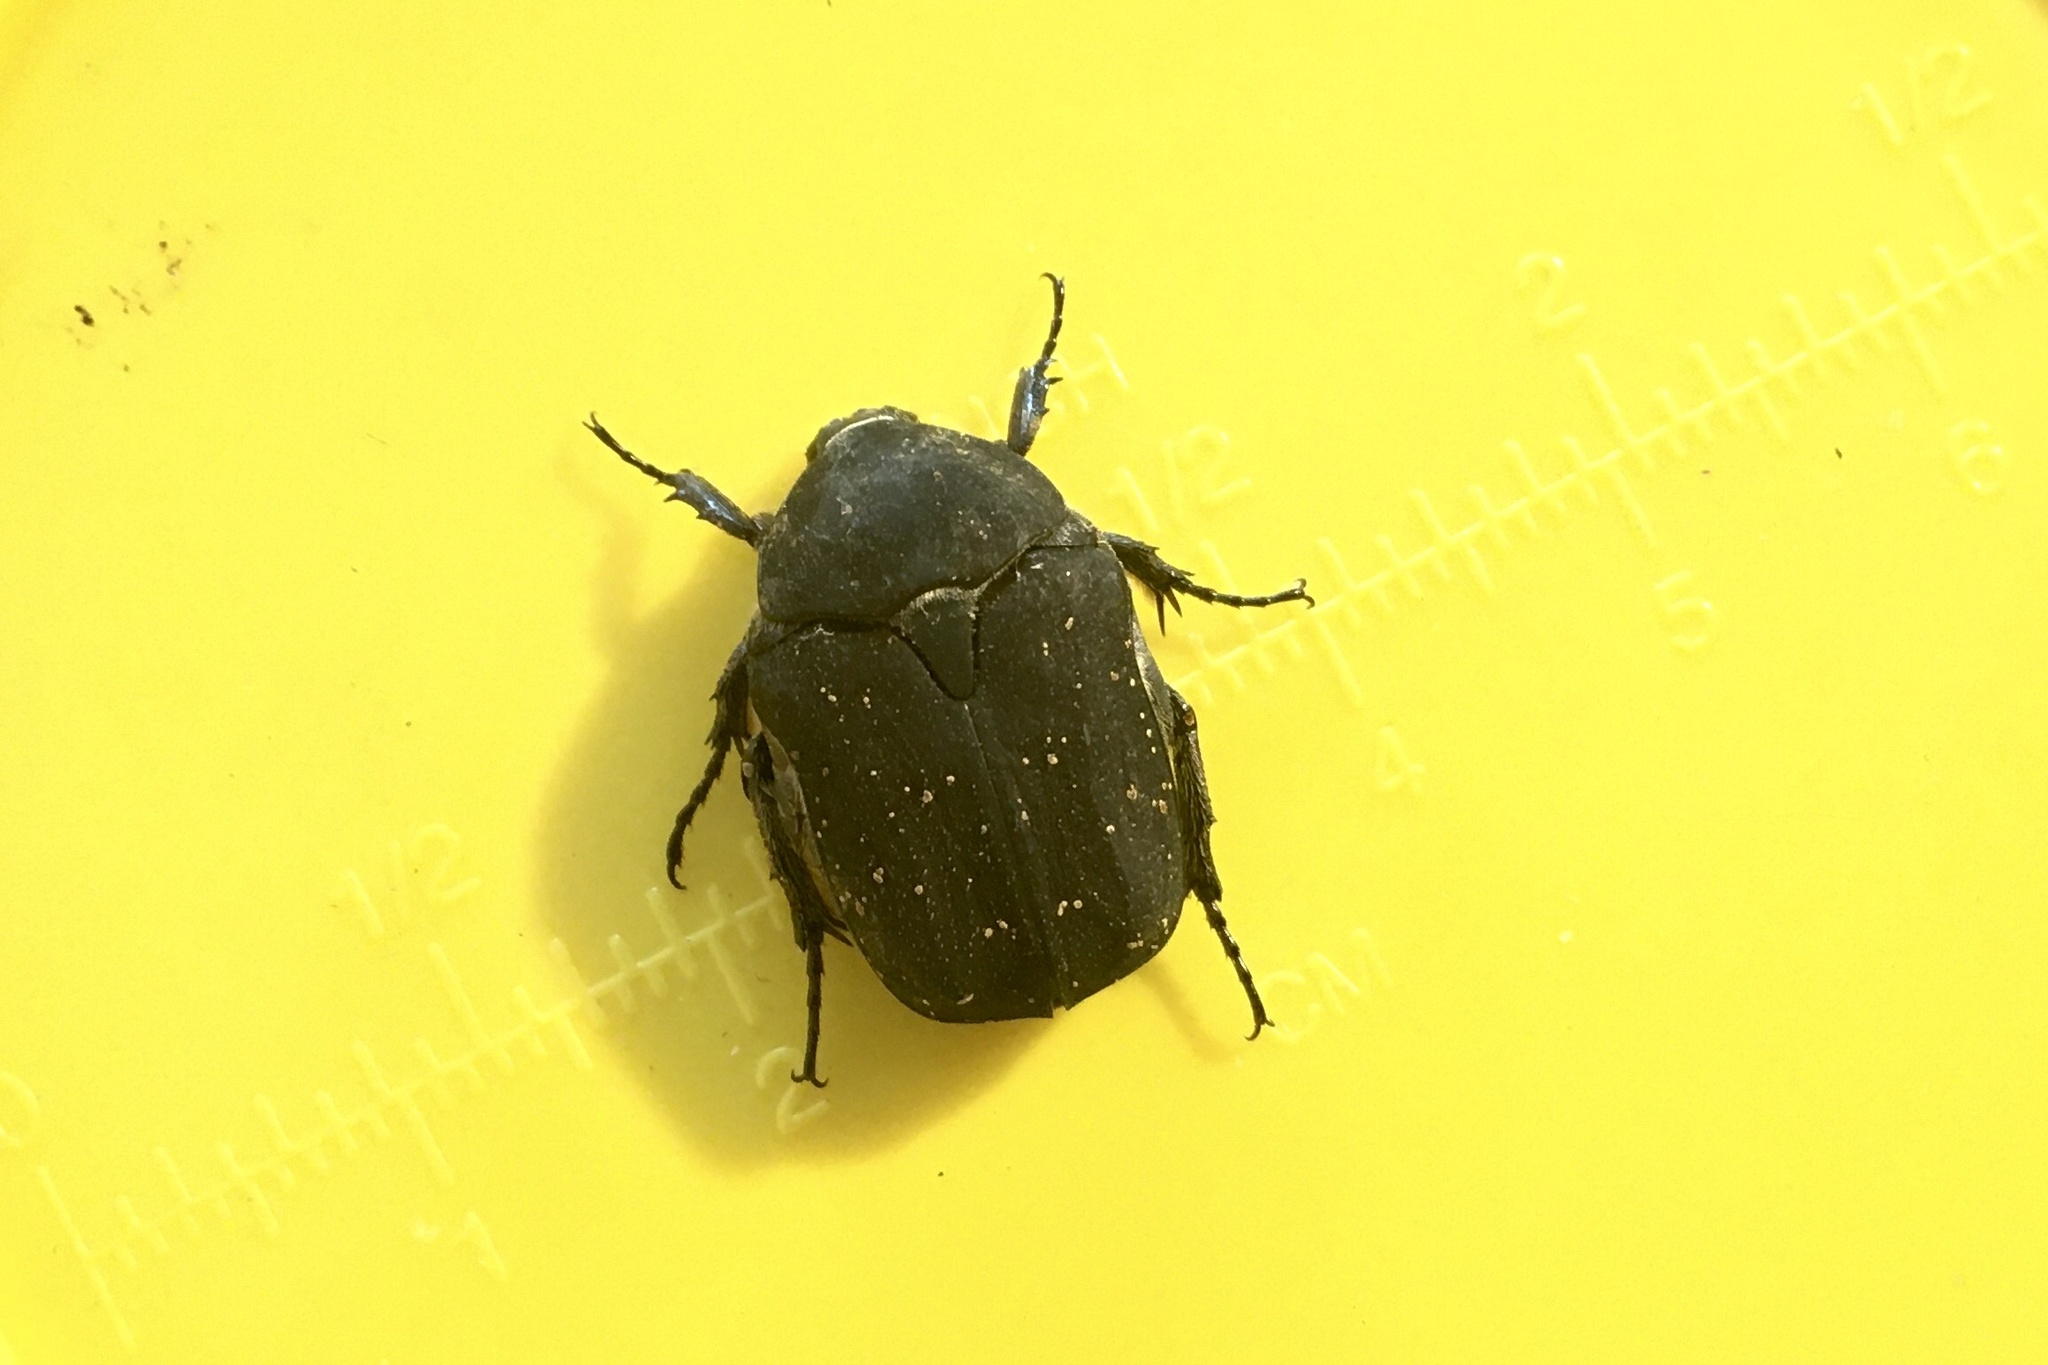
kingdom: Animalia
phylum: Arthropoda
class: Insecta
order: Coleoptera
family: Scarabaeidae
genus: Protaetia
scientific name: Protaetia morio
